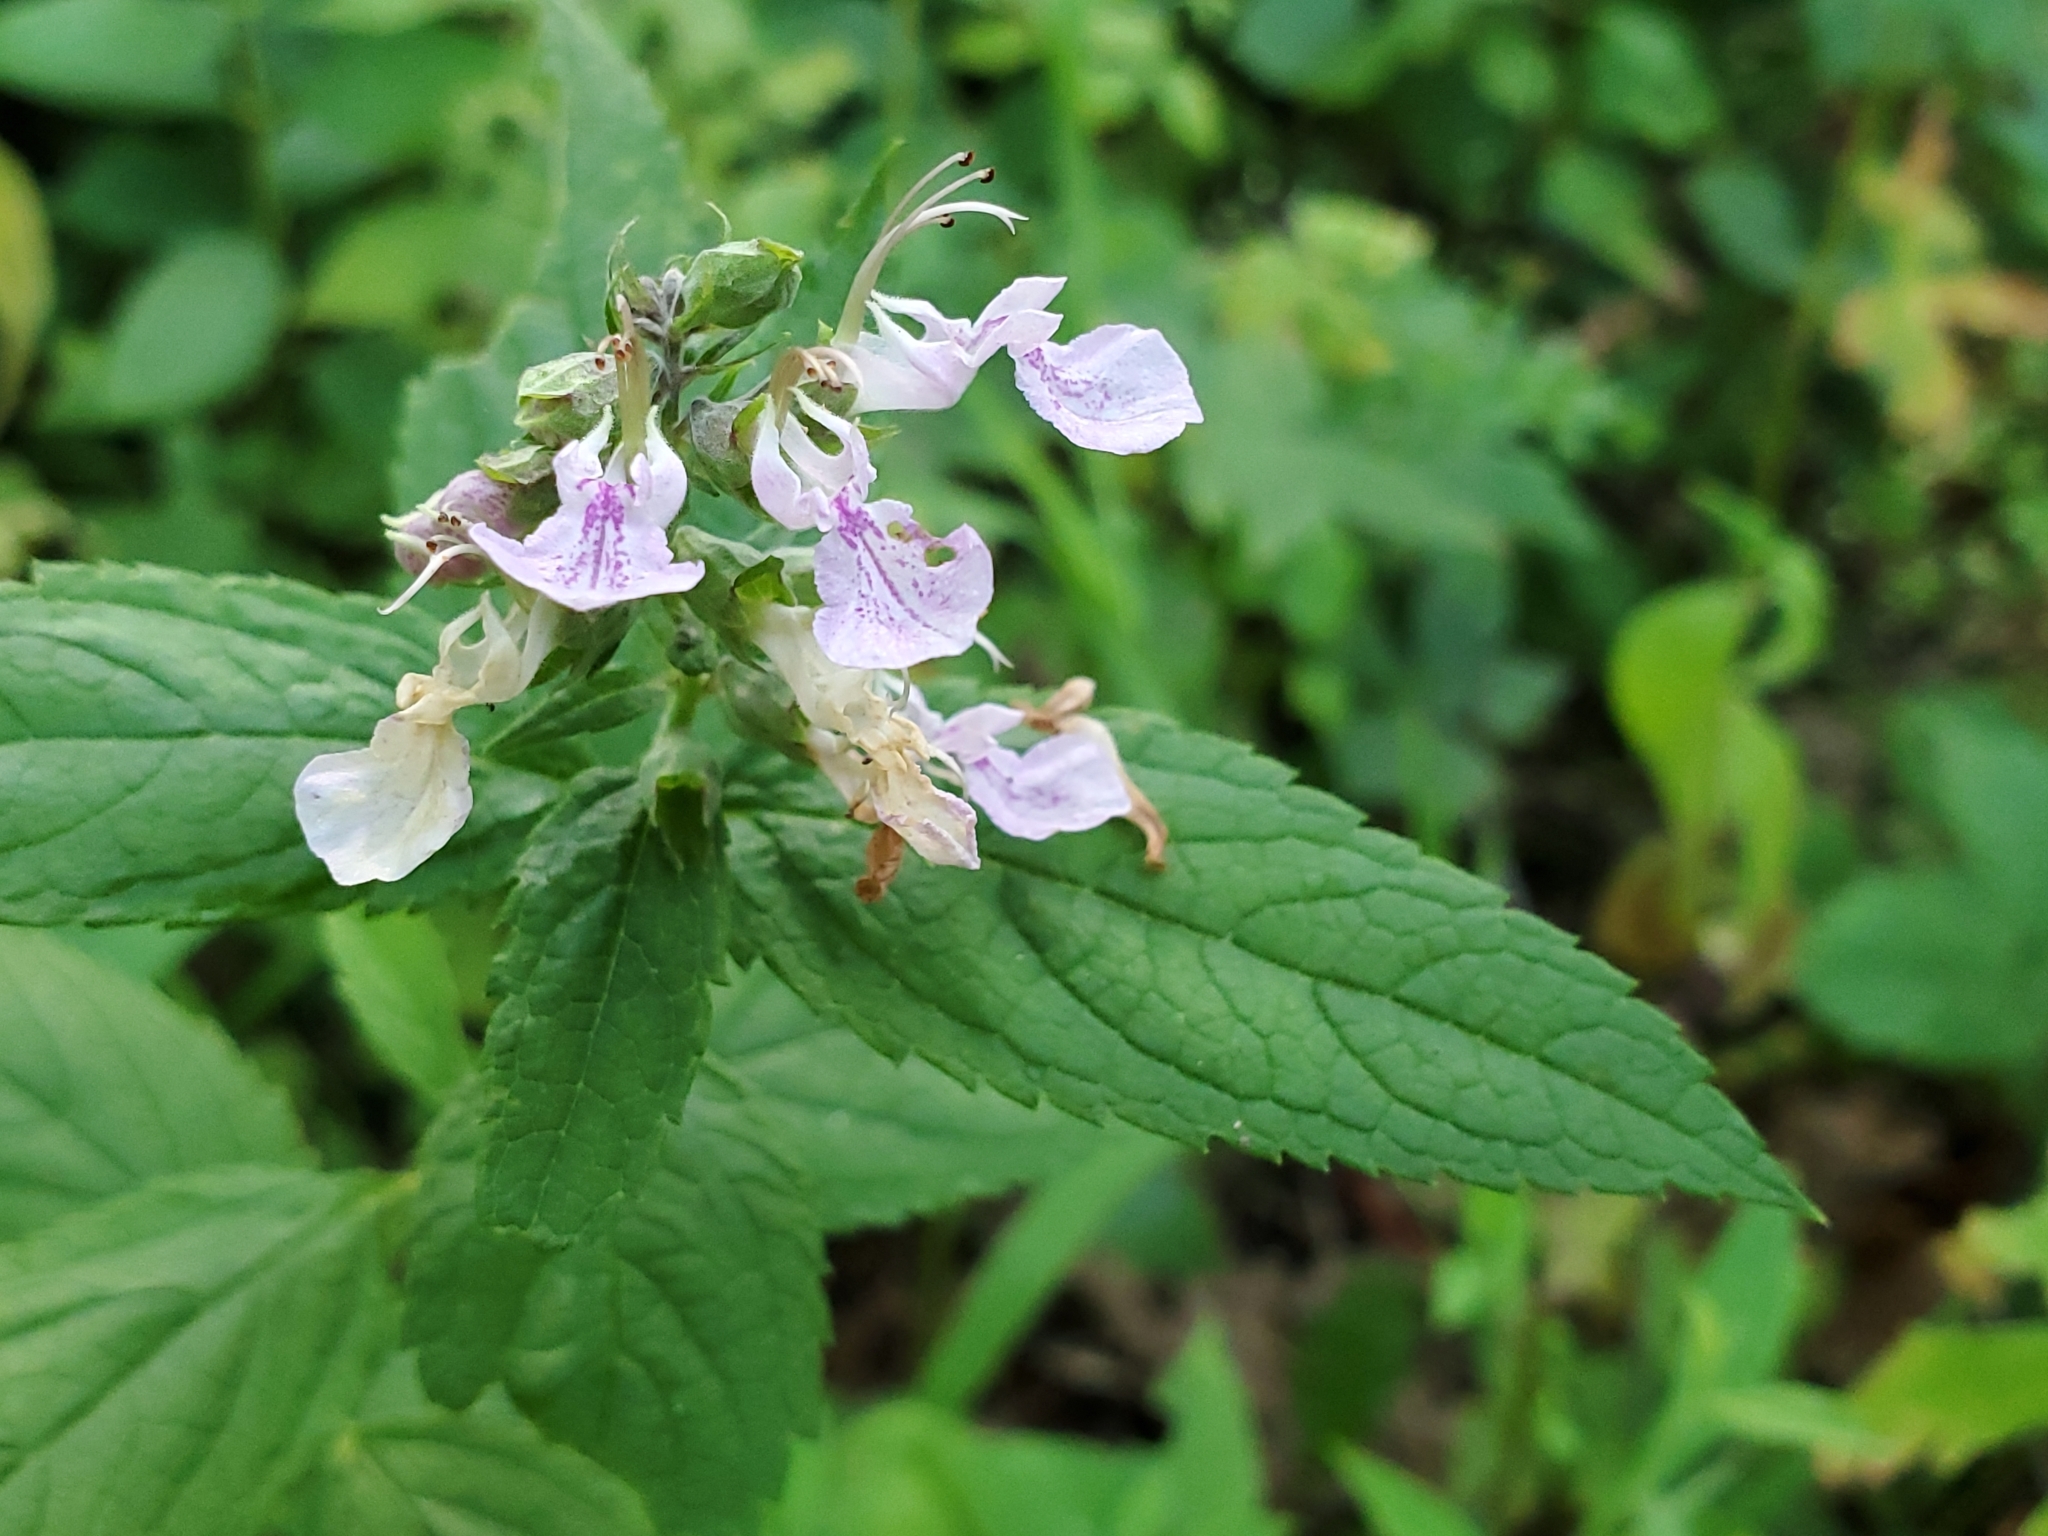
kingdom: Plantae
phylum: Tracheophyta
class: Magnoliopsida
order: Lamiales
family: Lamiaceae
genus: Teucrium
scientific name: Teucrium canadense
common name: American germander
